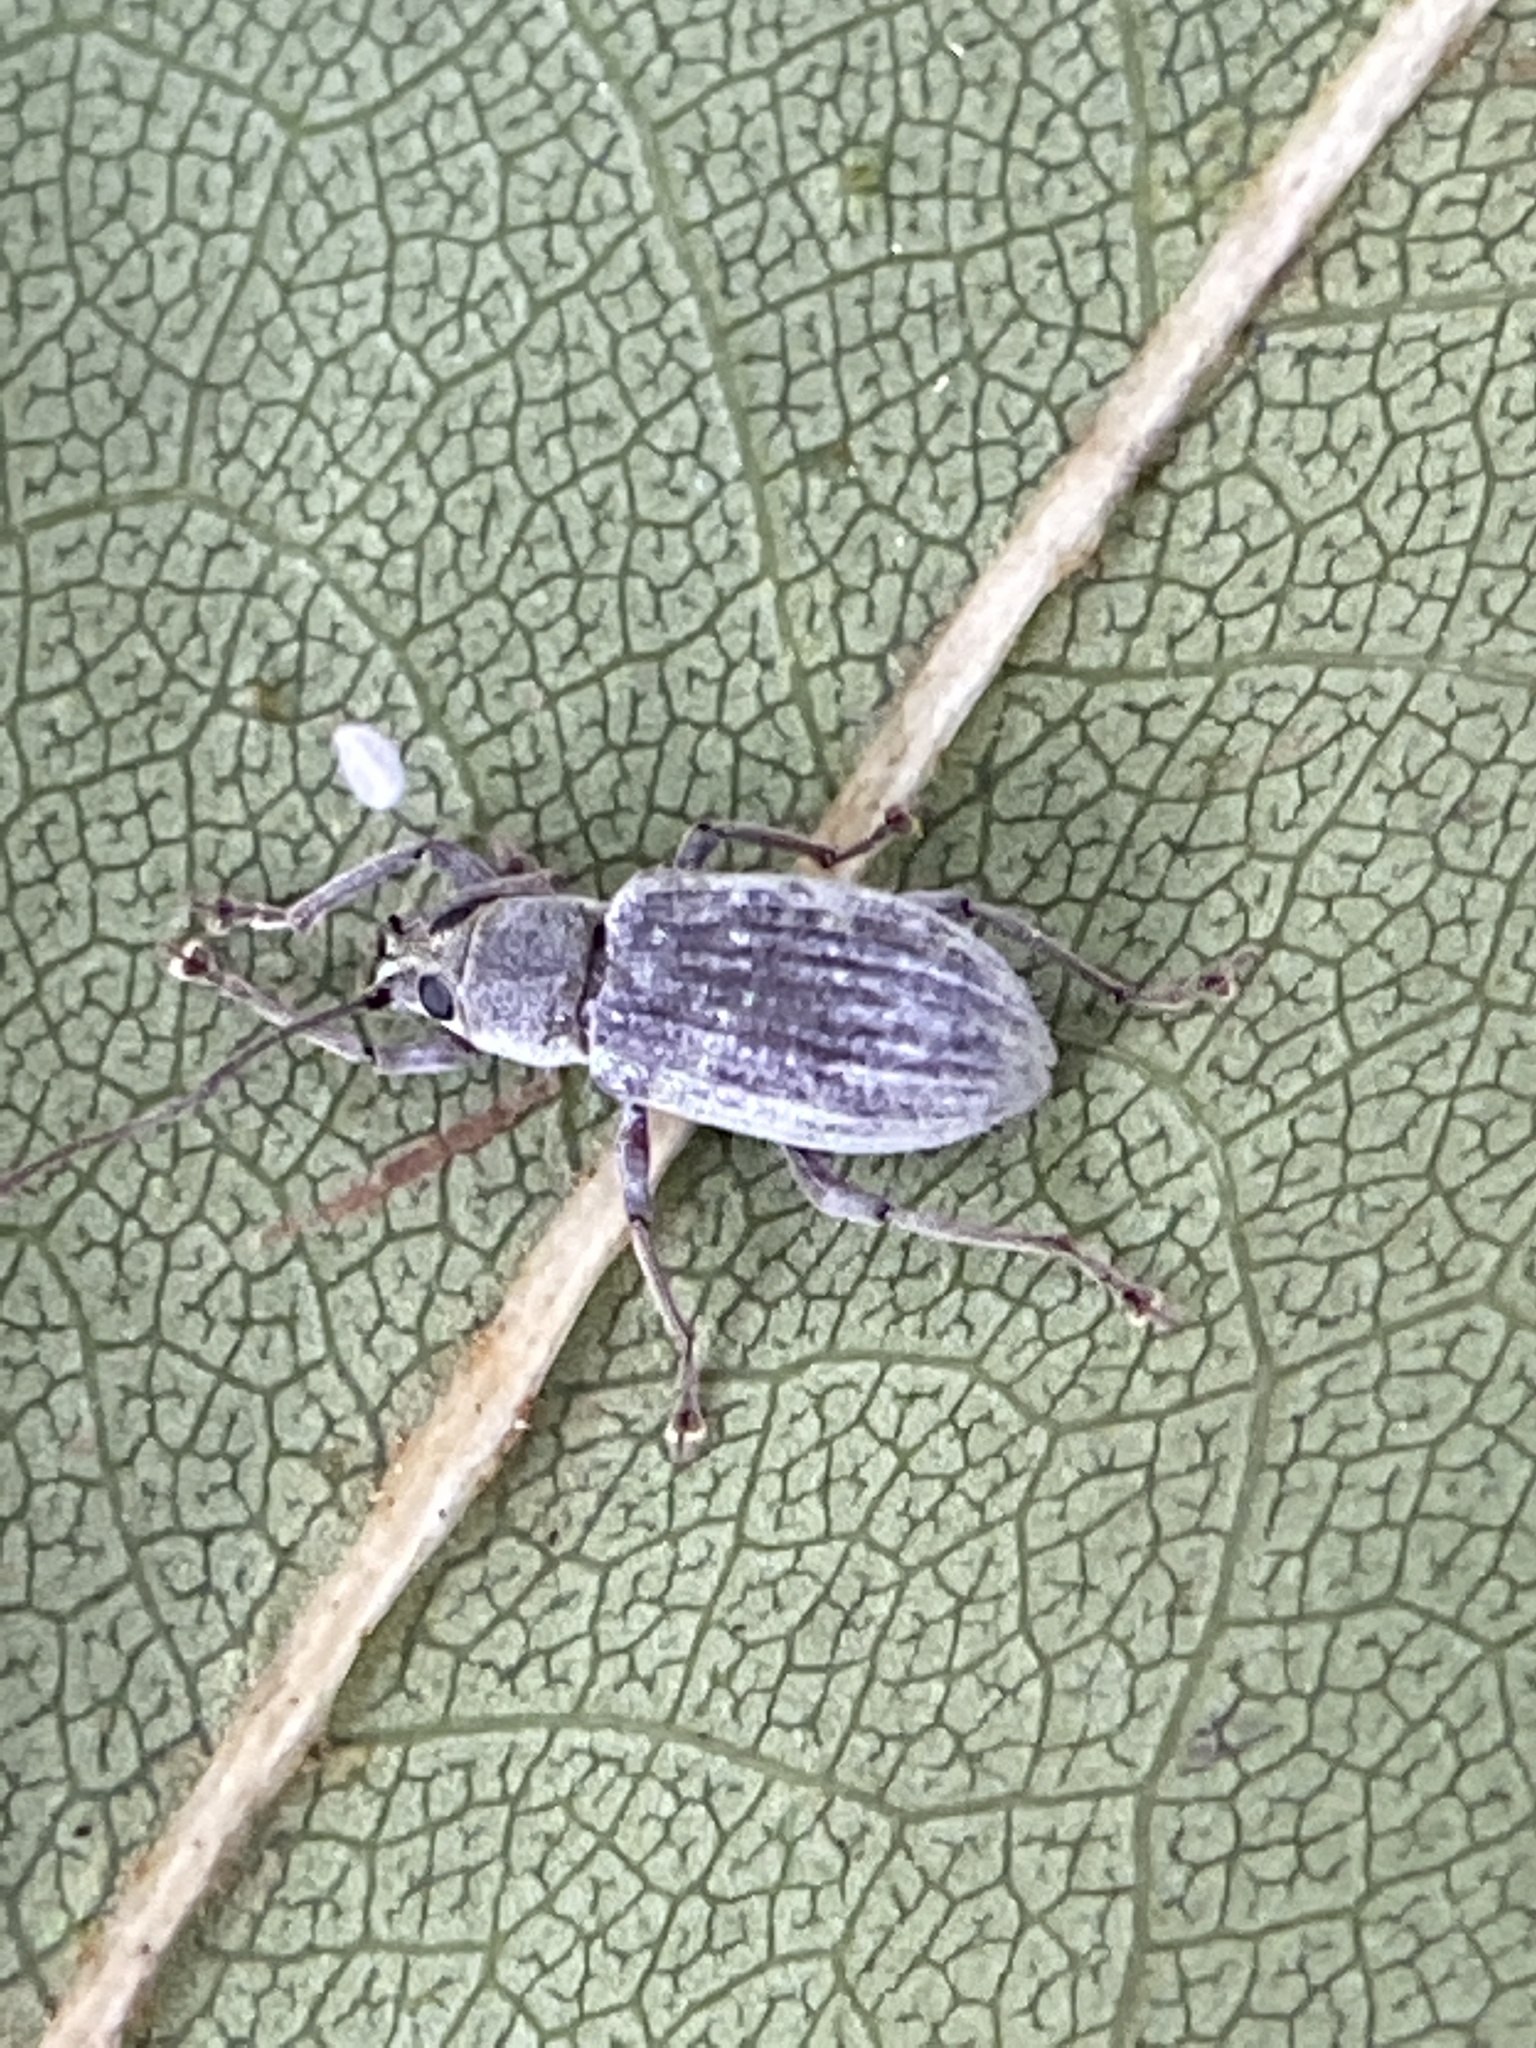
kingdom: Animalia
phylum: Arthropoda
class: Insecta
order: Coleoptera
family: Curculionidae
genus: Cyrtepistomus
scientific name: Cyrtepistomus castaneus
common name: Weevil
